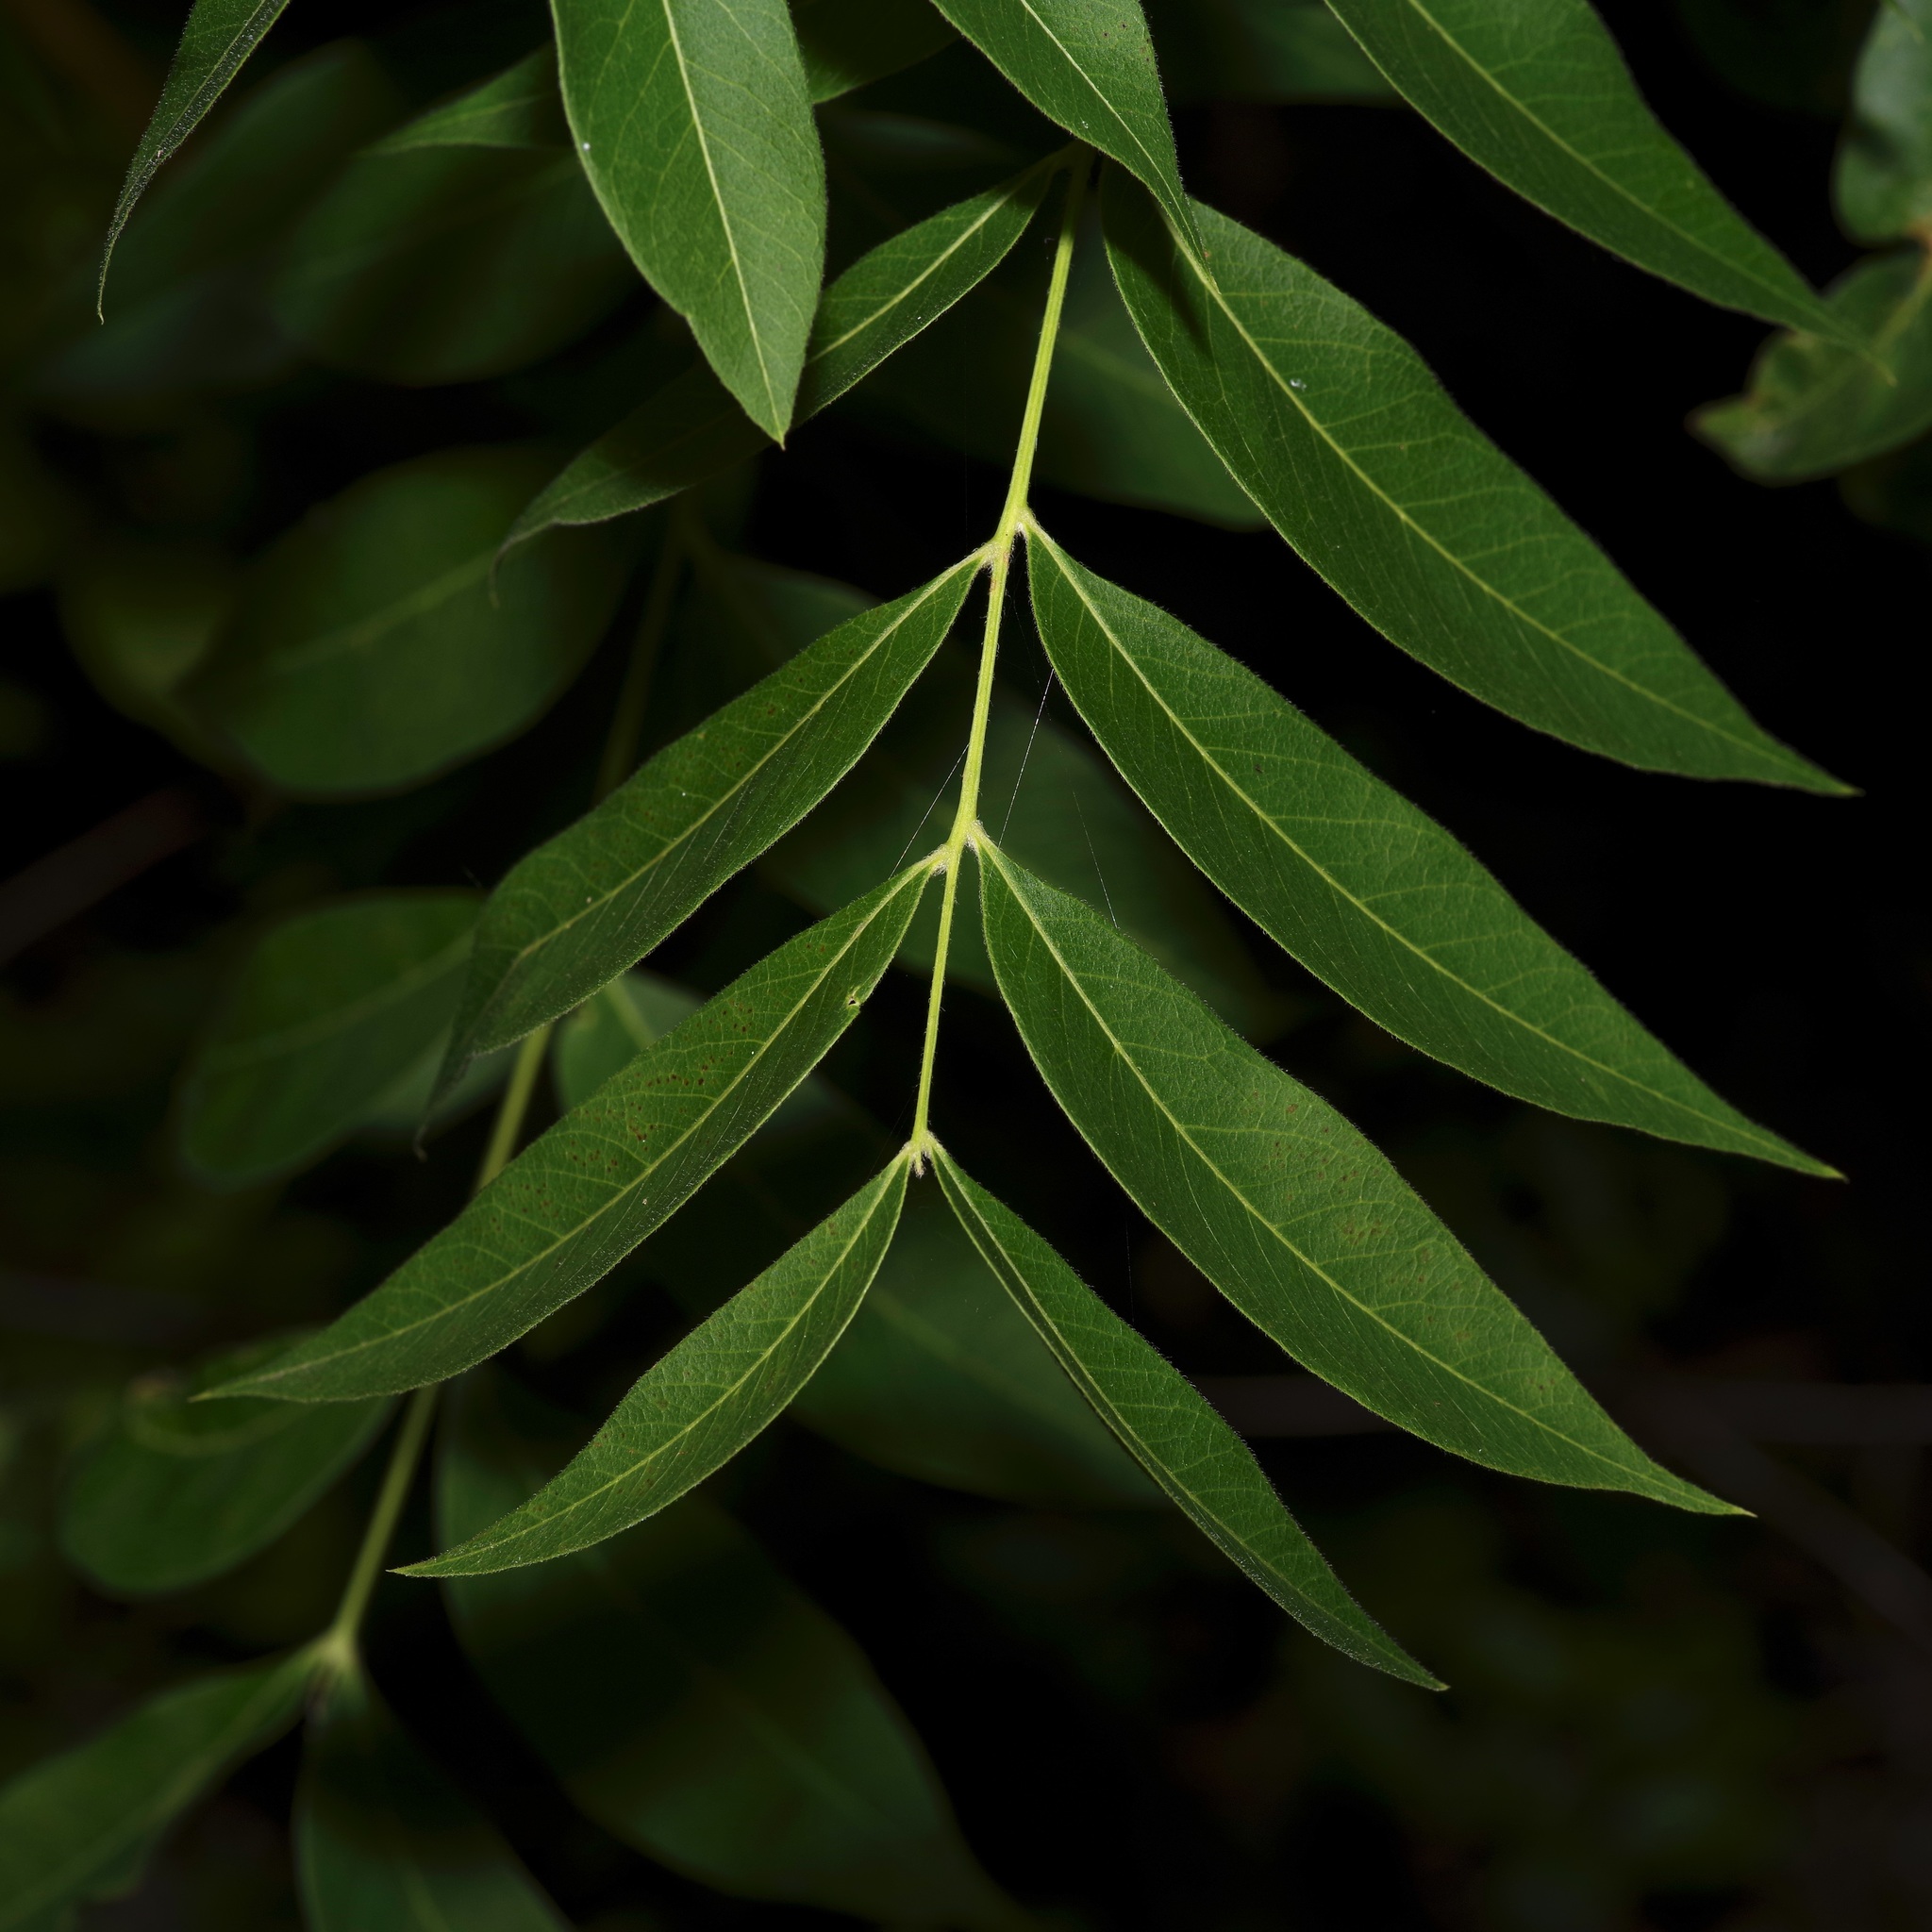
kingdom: Animalia
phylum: Arthropoda
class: Insecta
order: Lepidoptera
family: Notodontidae
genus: Elasmia
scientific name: Elasmia cave
